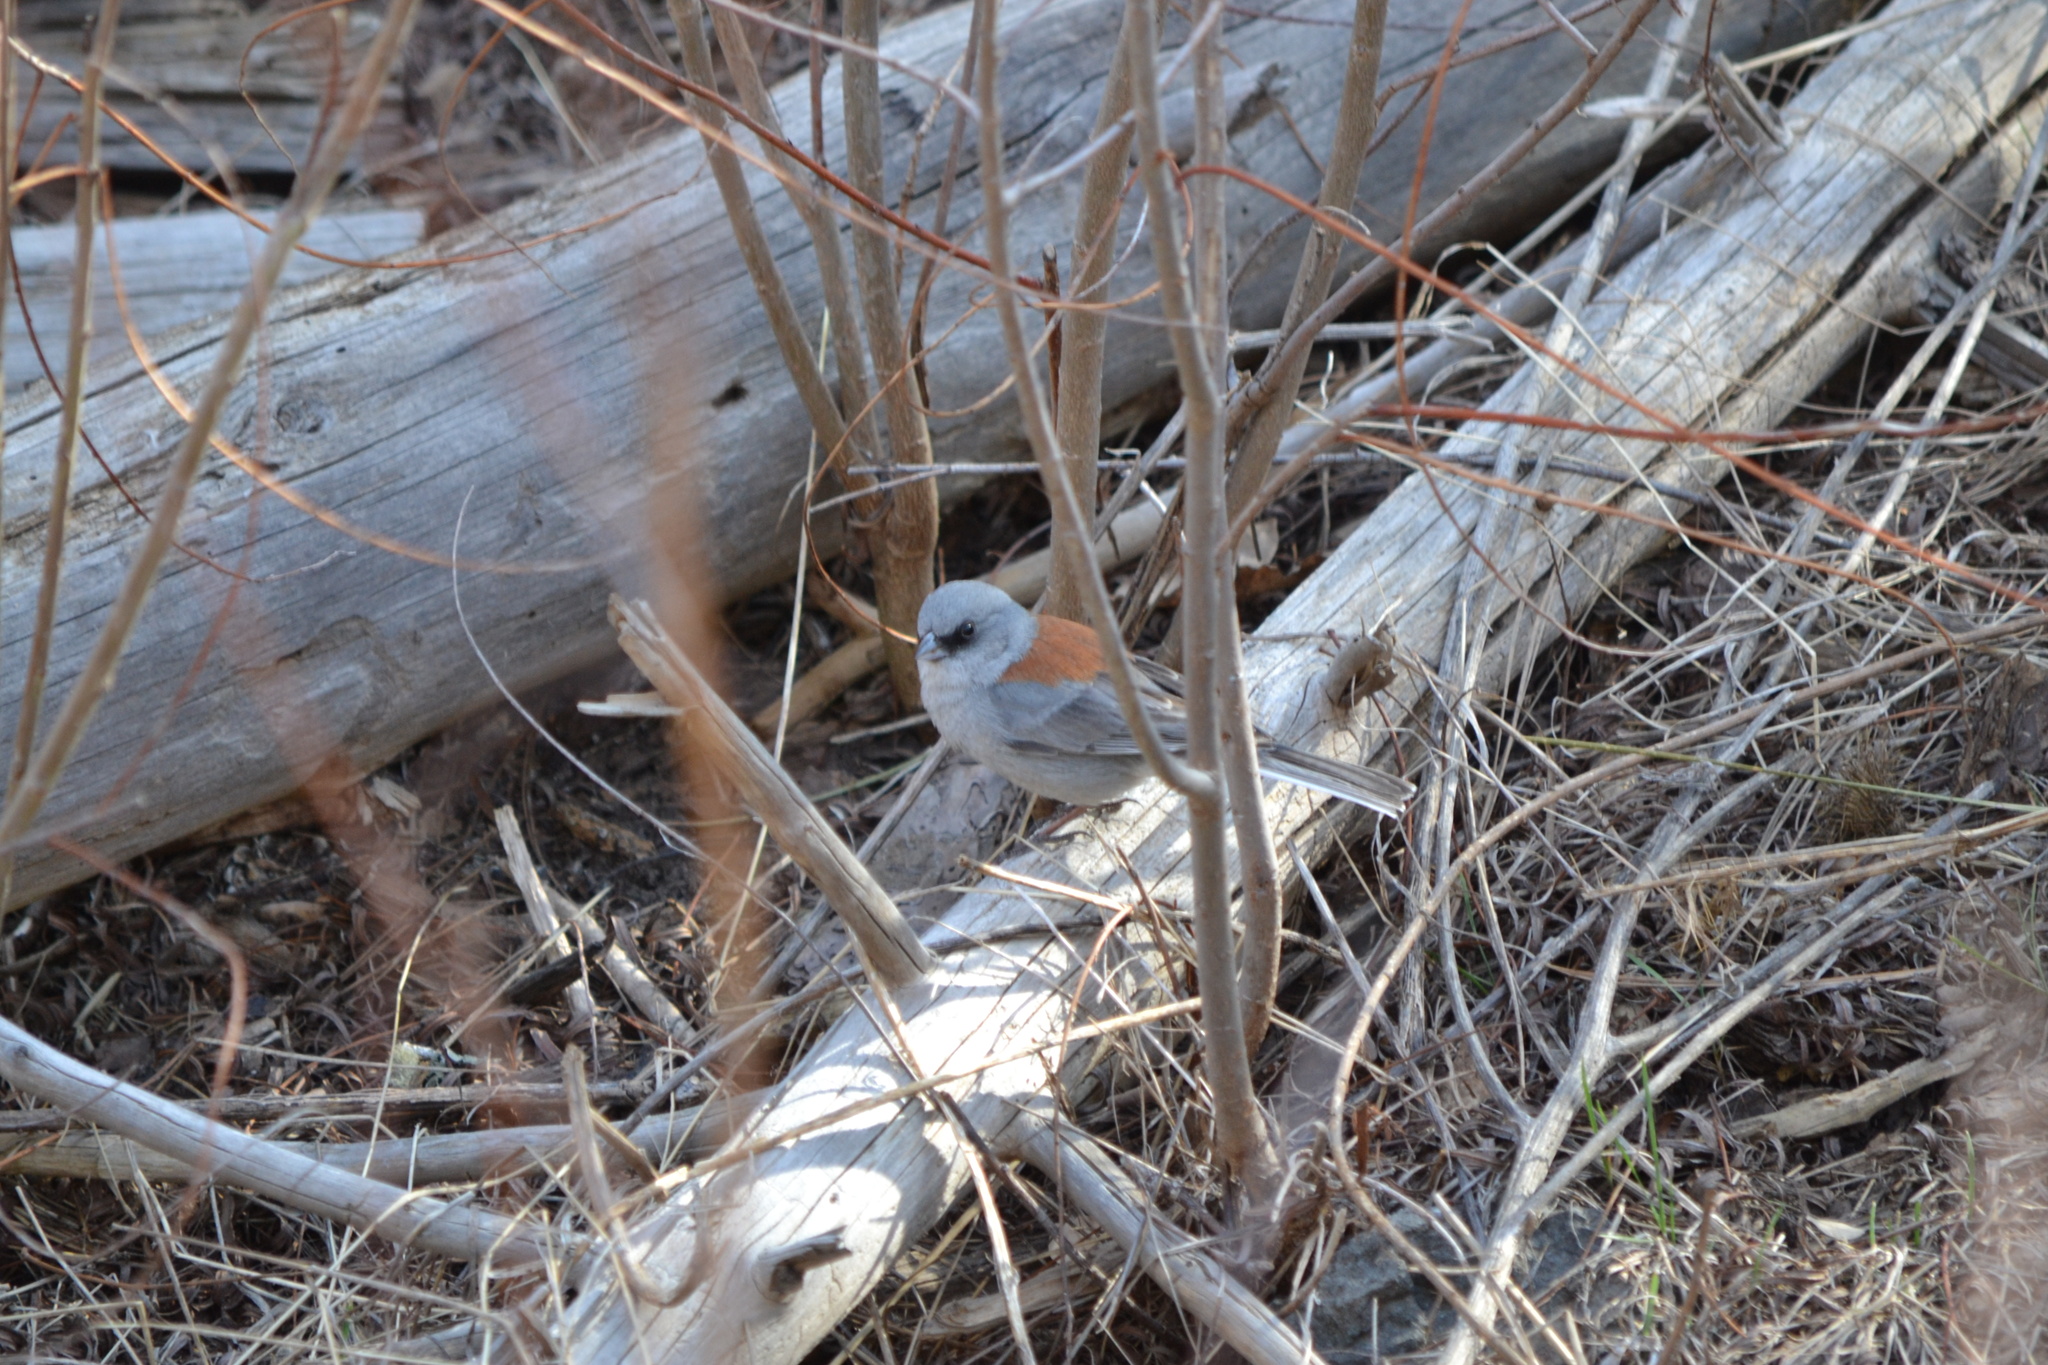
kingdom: Animalia
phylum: Chordata
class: Aves
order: Passeriformes
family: Passerellidae
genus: Junco
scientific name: Junco hyemalis
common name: Dark-eyed junco
